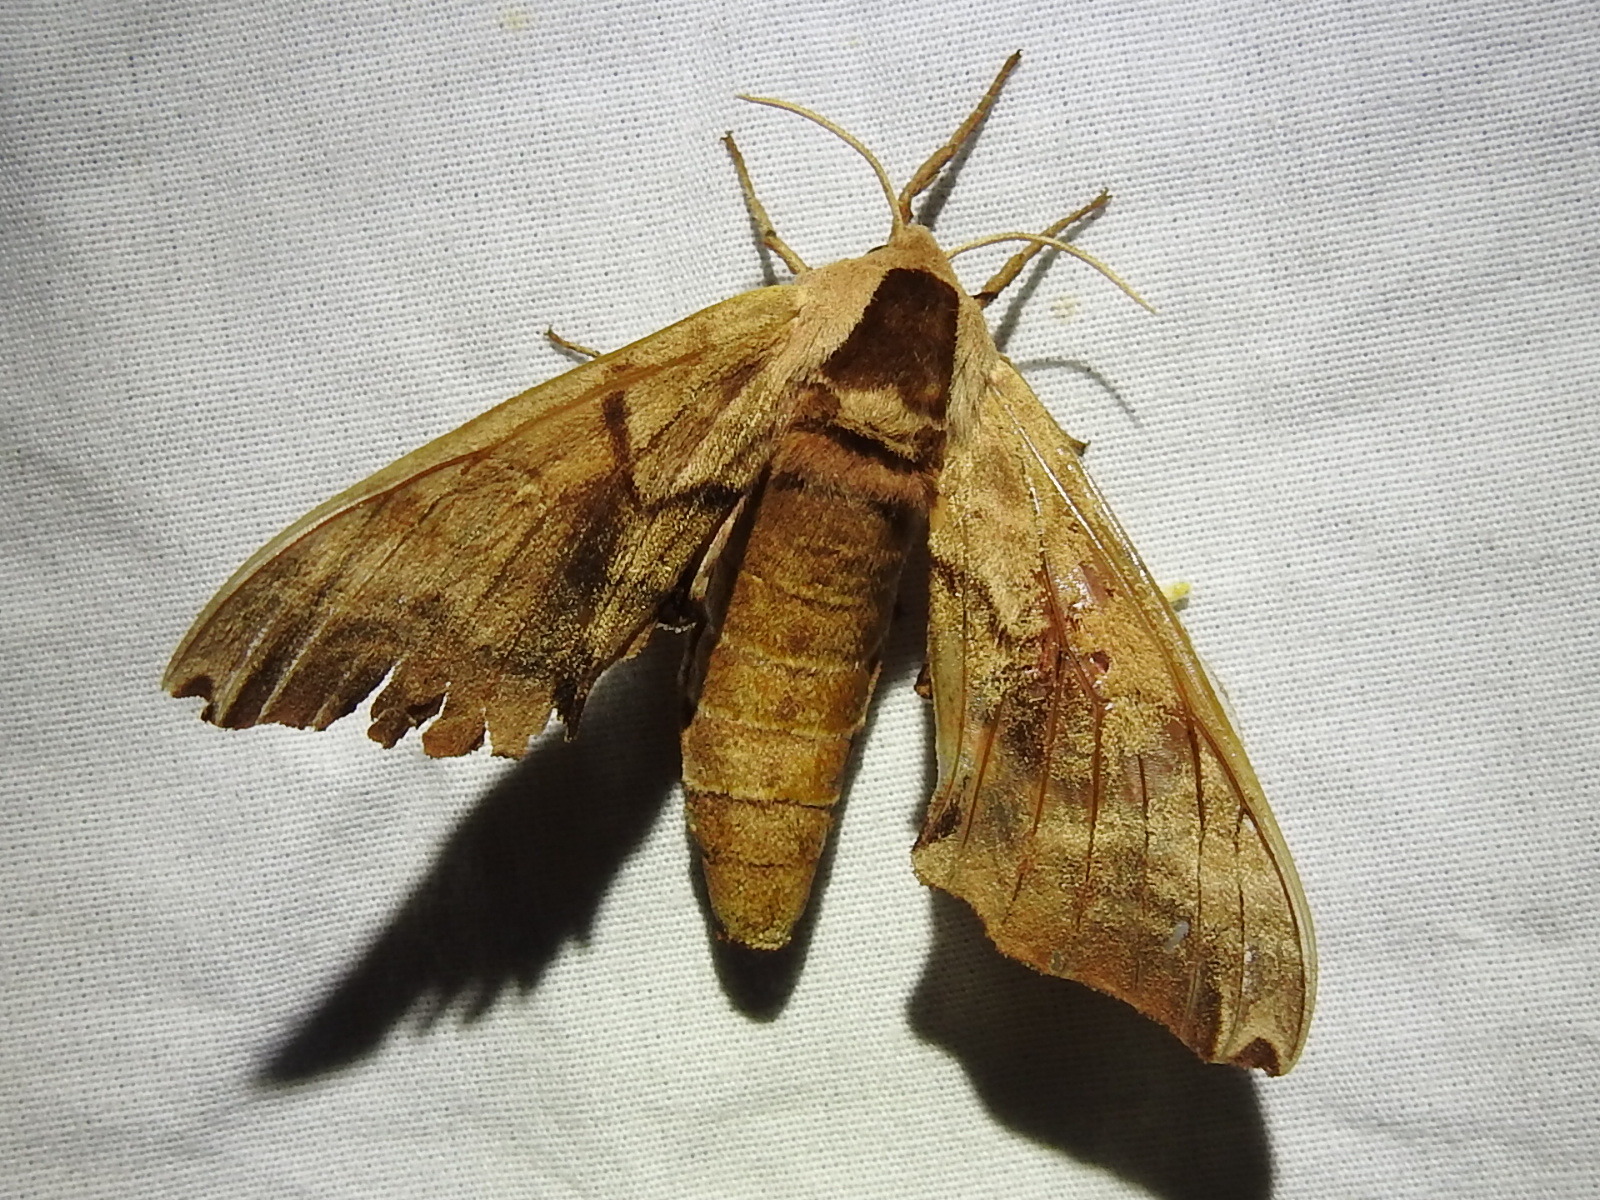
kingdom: Animalia
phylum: Arthropoda
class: Insecta
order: Lepidoptera
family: Sphingidae
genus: Smerinthus
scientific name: Smerinthus jamaicensis
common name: Twin spotted sphinx
